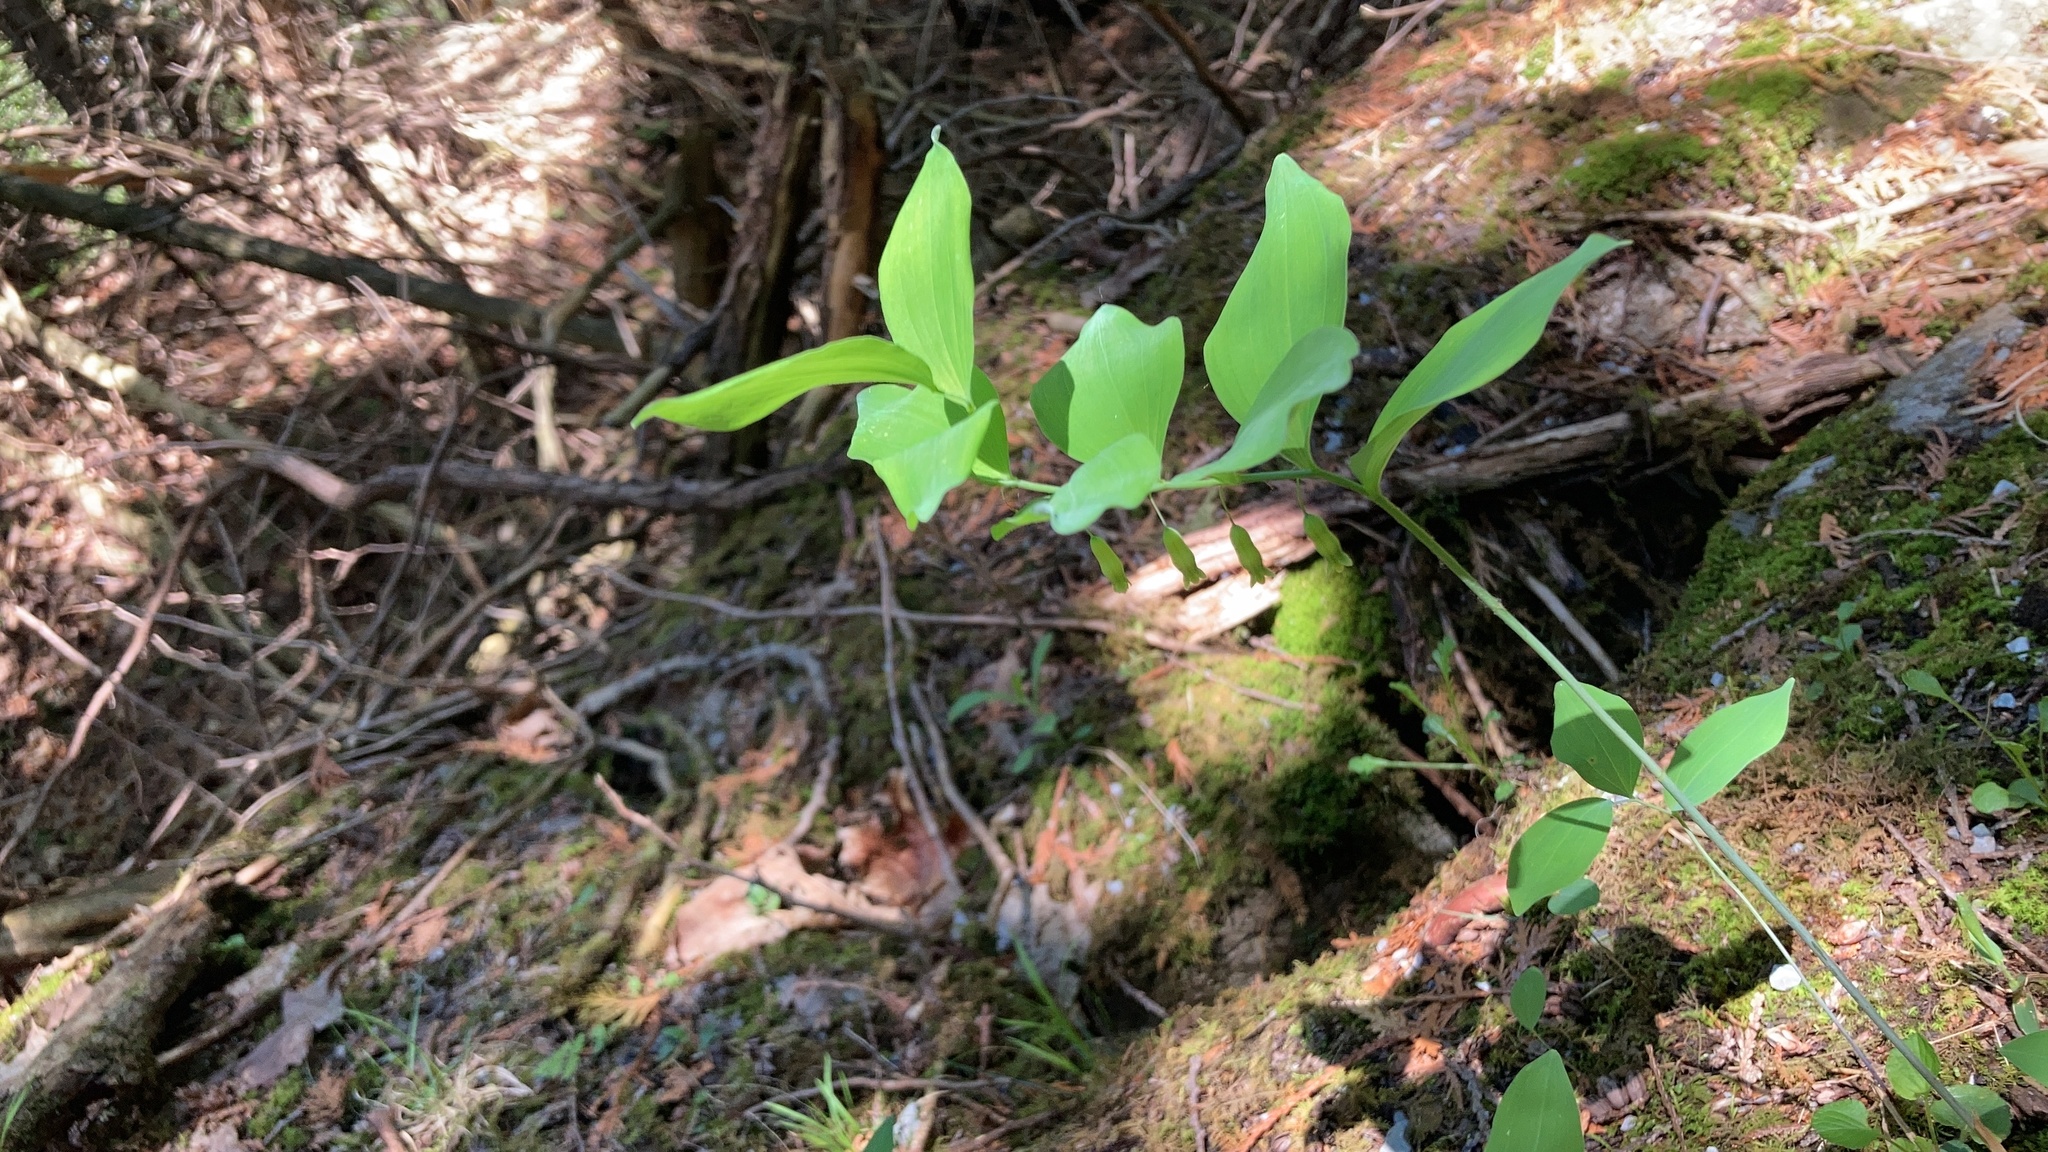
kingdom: Plantae
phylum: Tracheophyta
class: Liliopsida
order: Asparagales
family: Asparagaceae
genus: Polygonatum
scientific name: Polygonatum pubescens
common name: Downy solomon's seal
